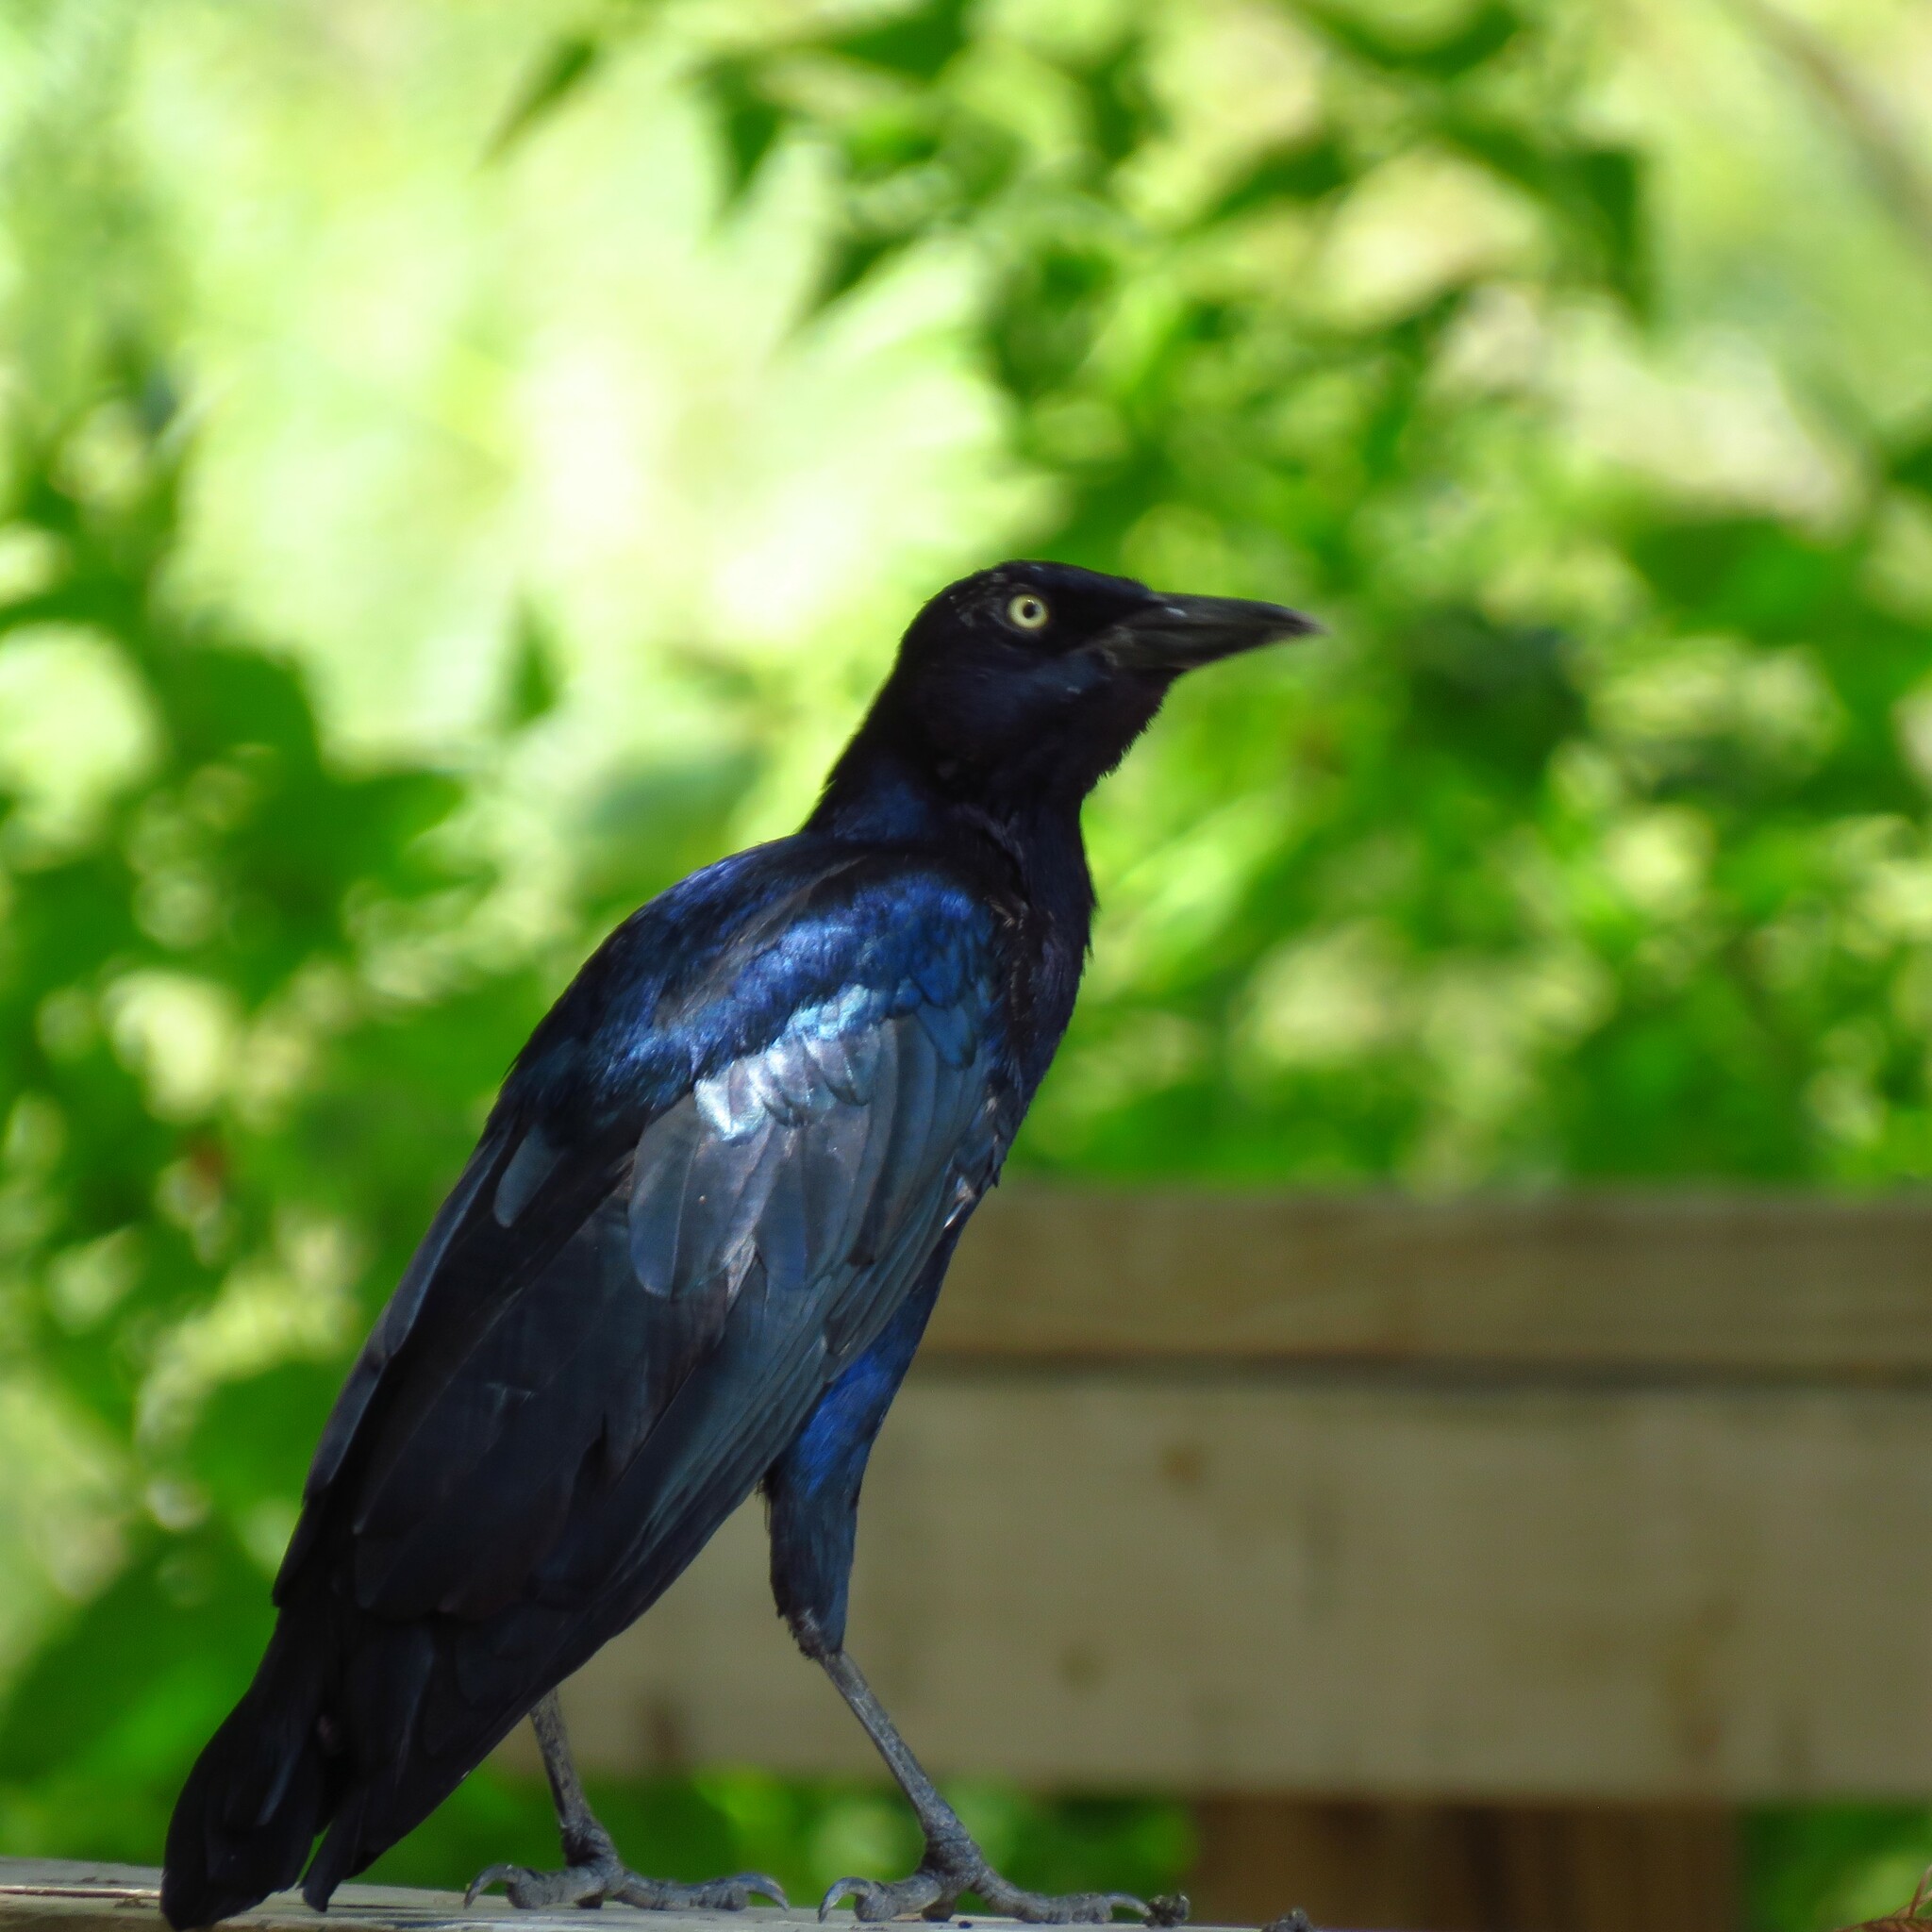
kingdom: Animalia
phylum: Chordata
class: Aves
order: Passeriformes
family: Icteridae
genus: Quiscalus
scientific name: Quiscalus mexicanus
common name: Great-tailed grackle
